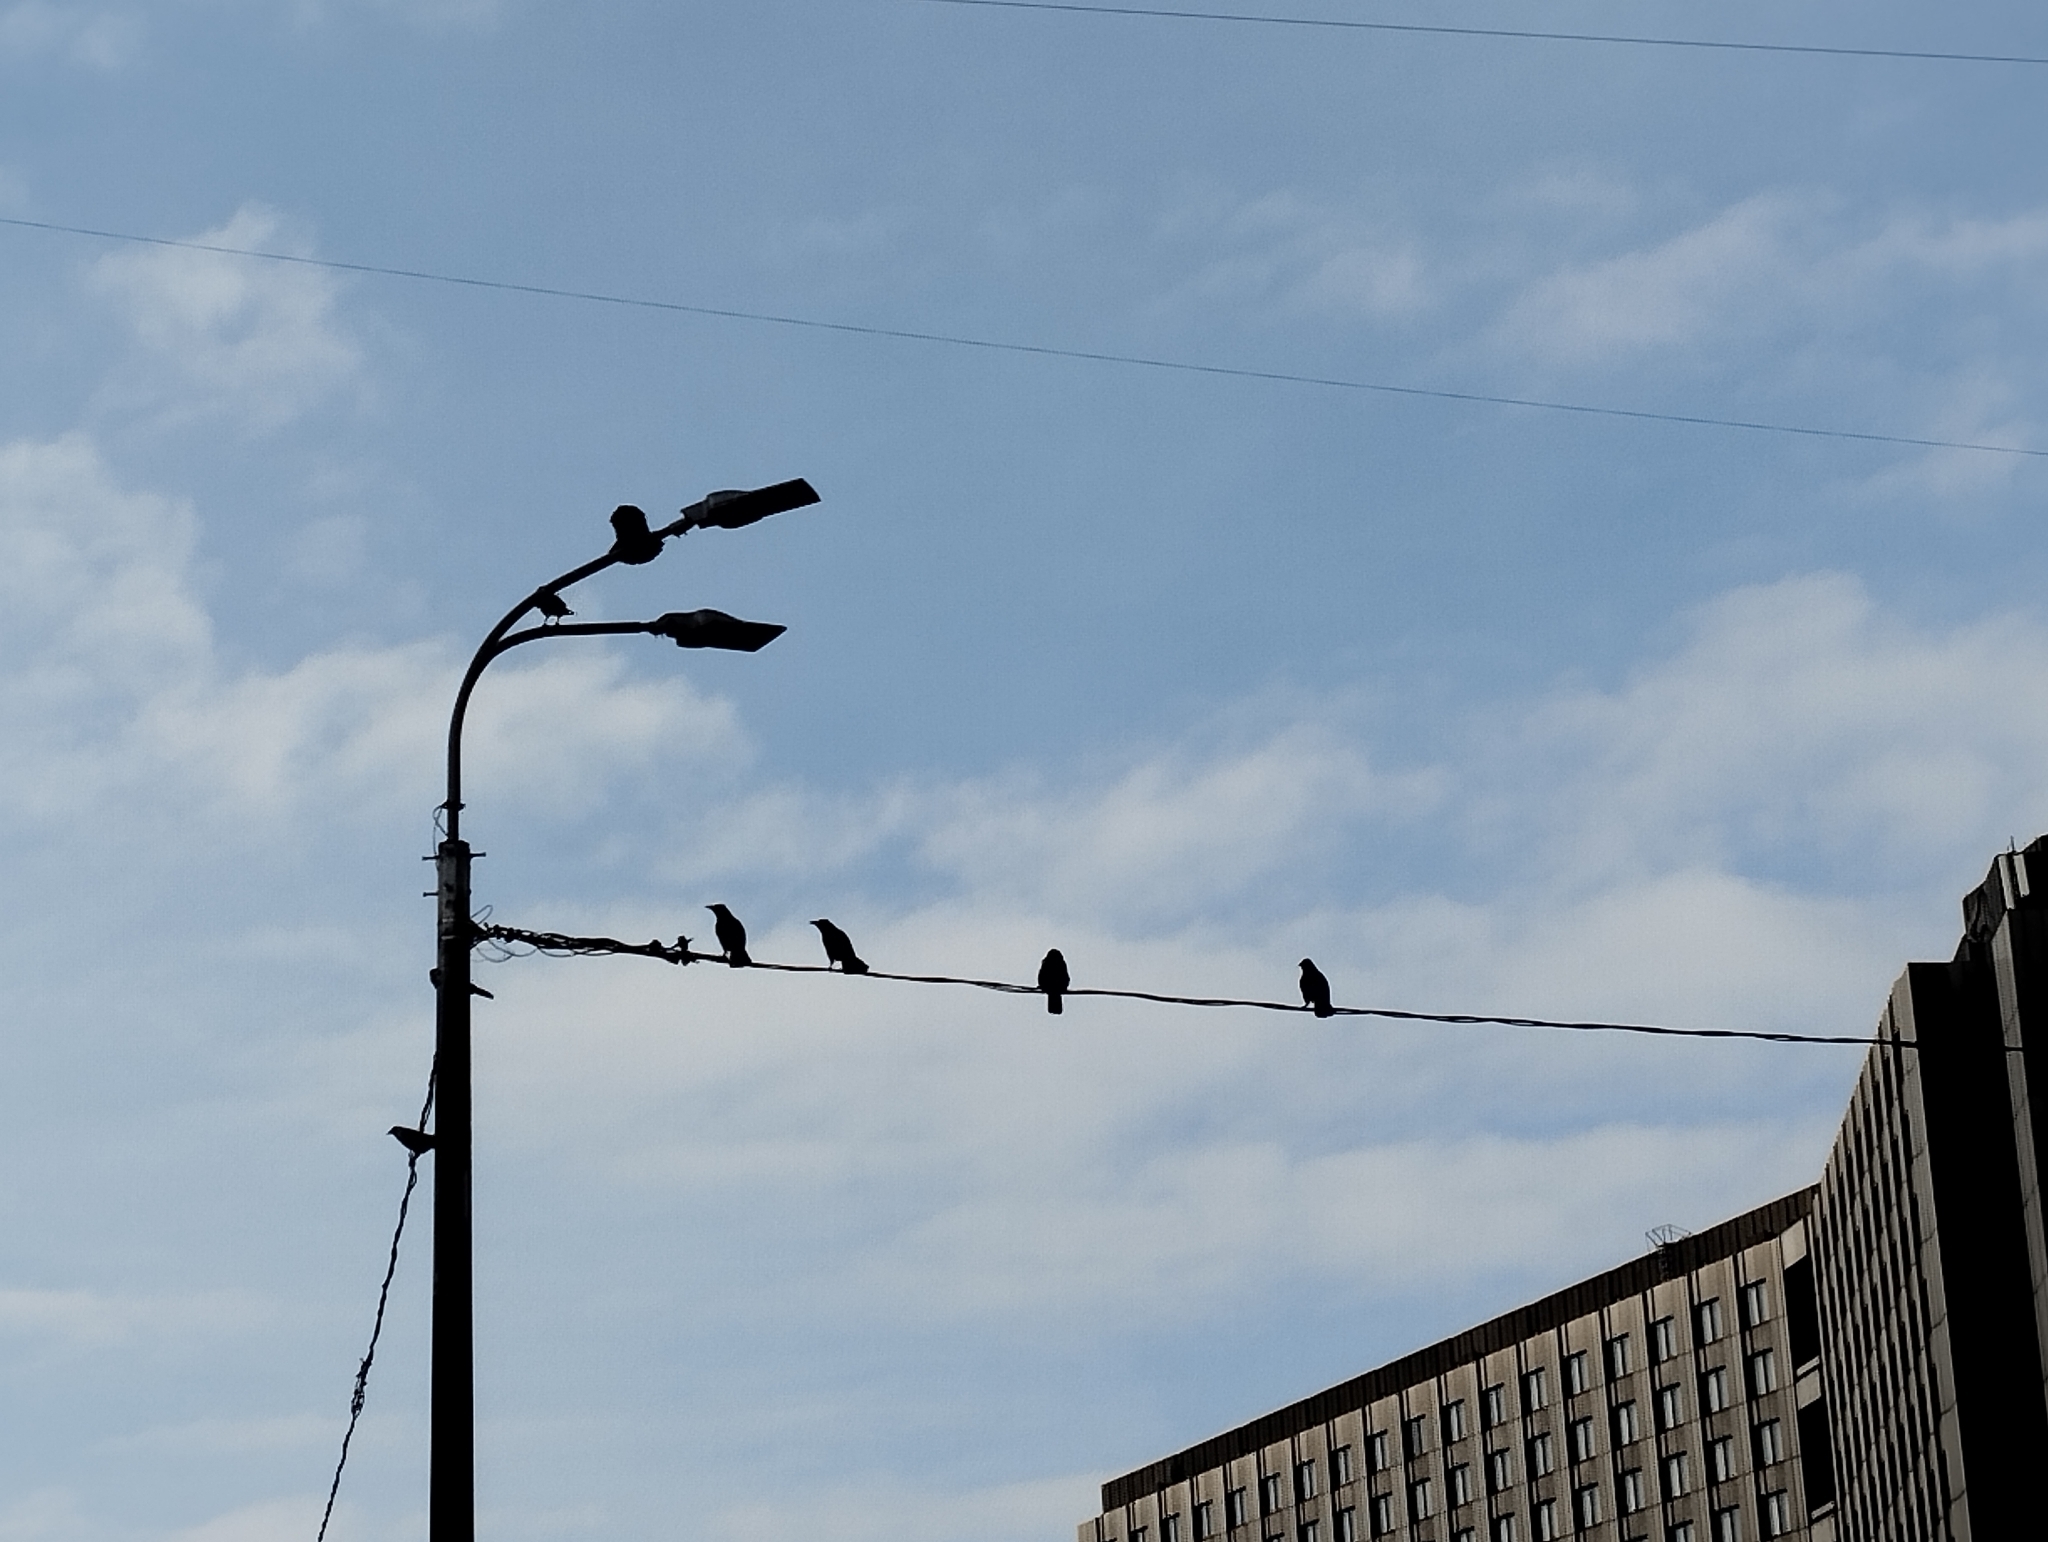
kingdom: Animalia
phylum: Chordata
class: Aves
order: Passeriformes
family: Corvidae
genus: Corvus
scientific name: Corvus cornix
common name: Hooded crow
